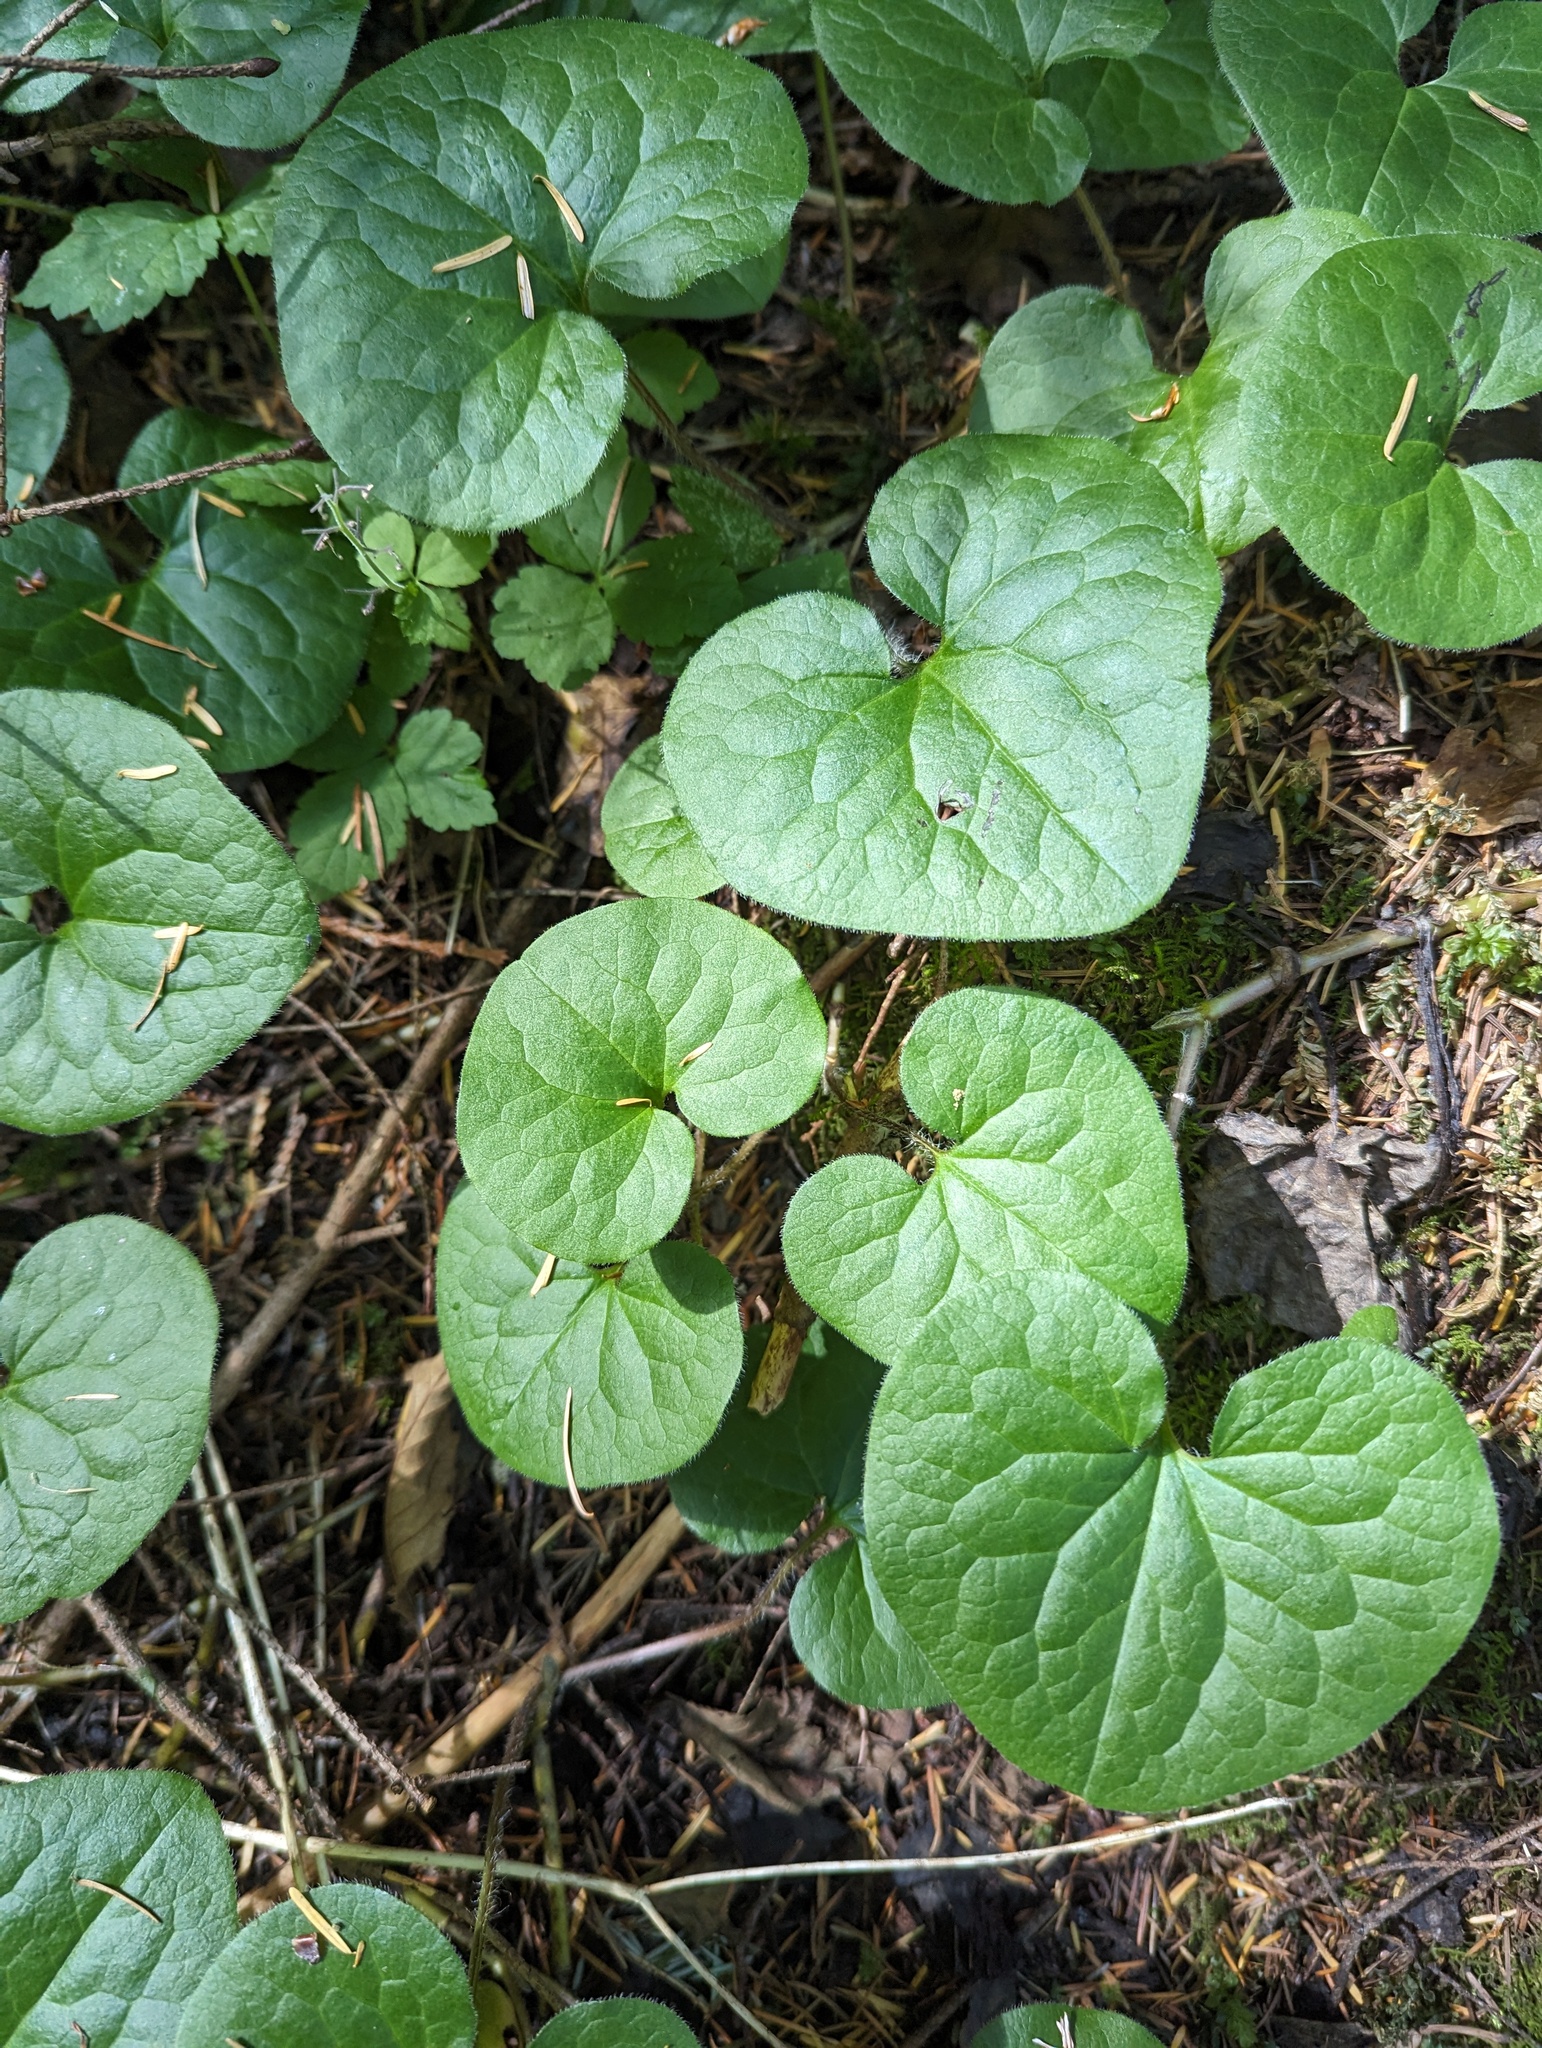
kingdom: Plantae
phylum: Tracheophyta
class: Magnoliopsida
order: Piperales
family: Aristolochiaceae
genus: Asarum
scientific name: Asarum caudatum
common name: Wild ginger
